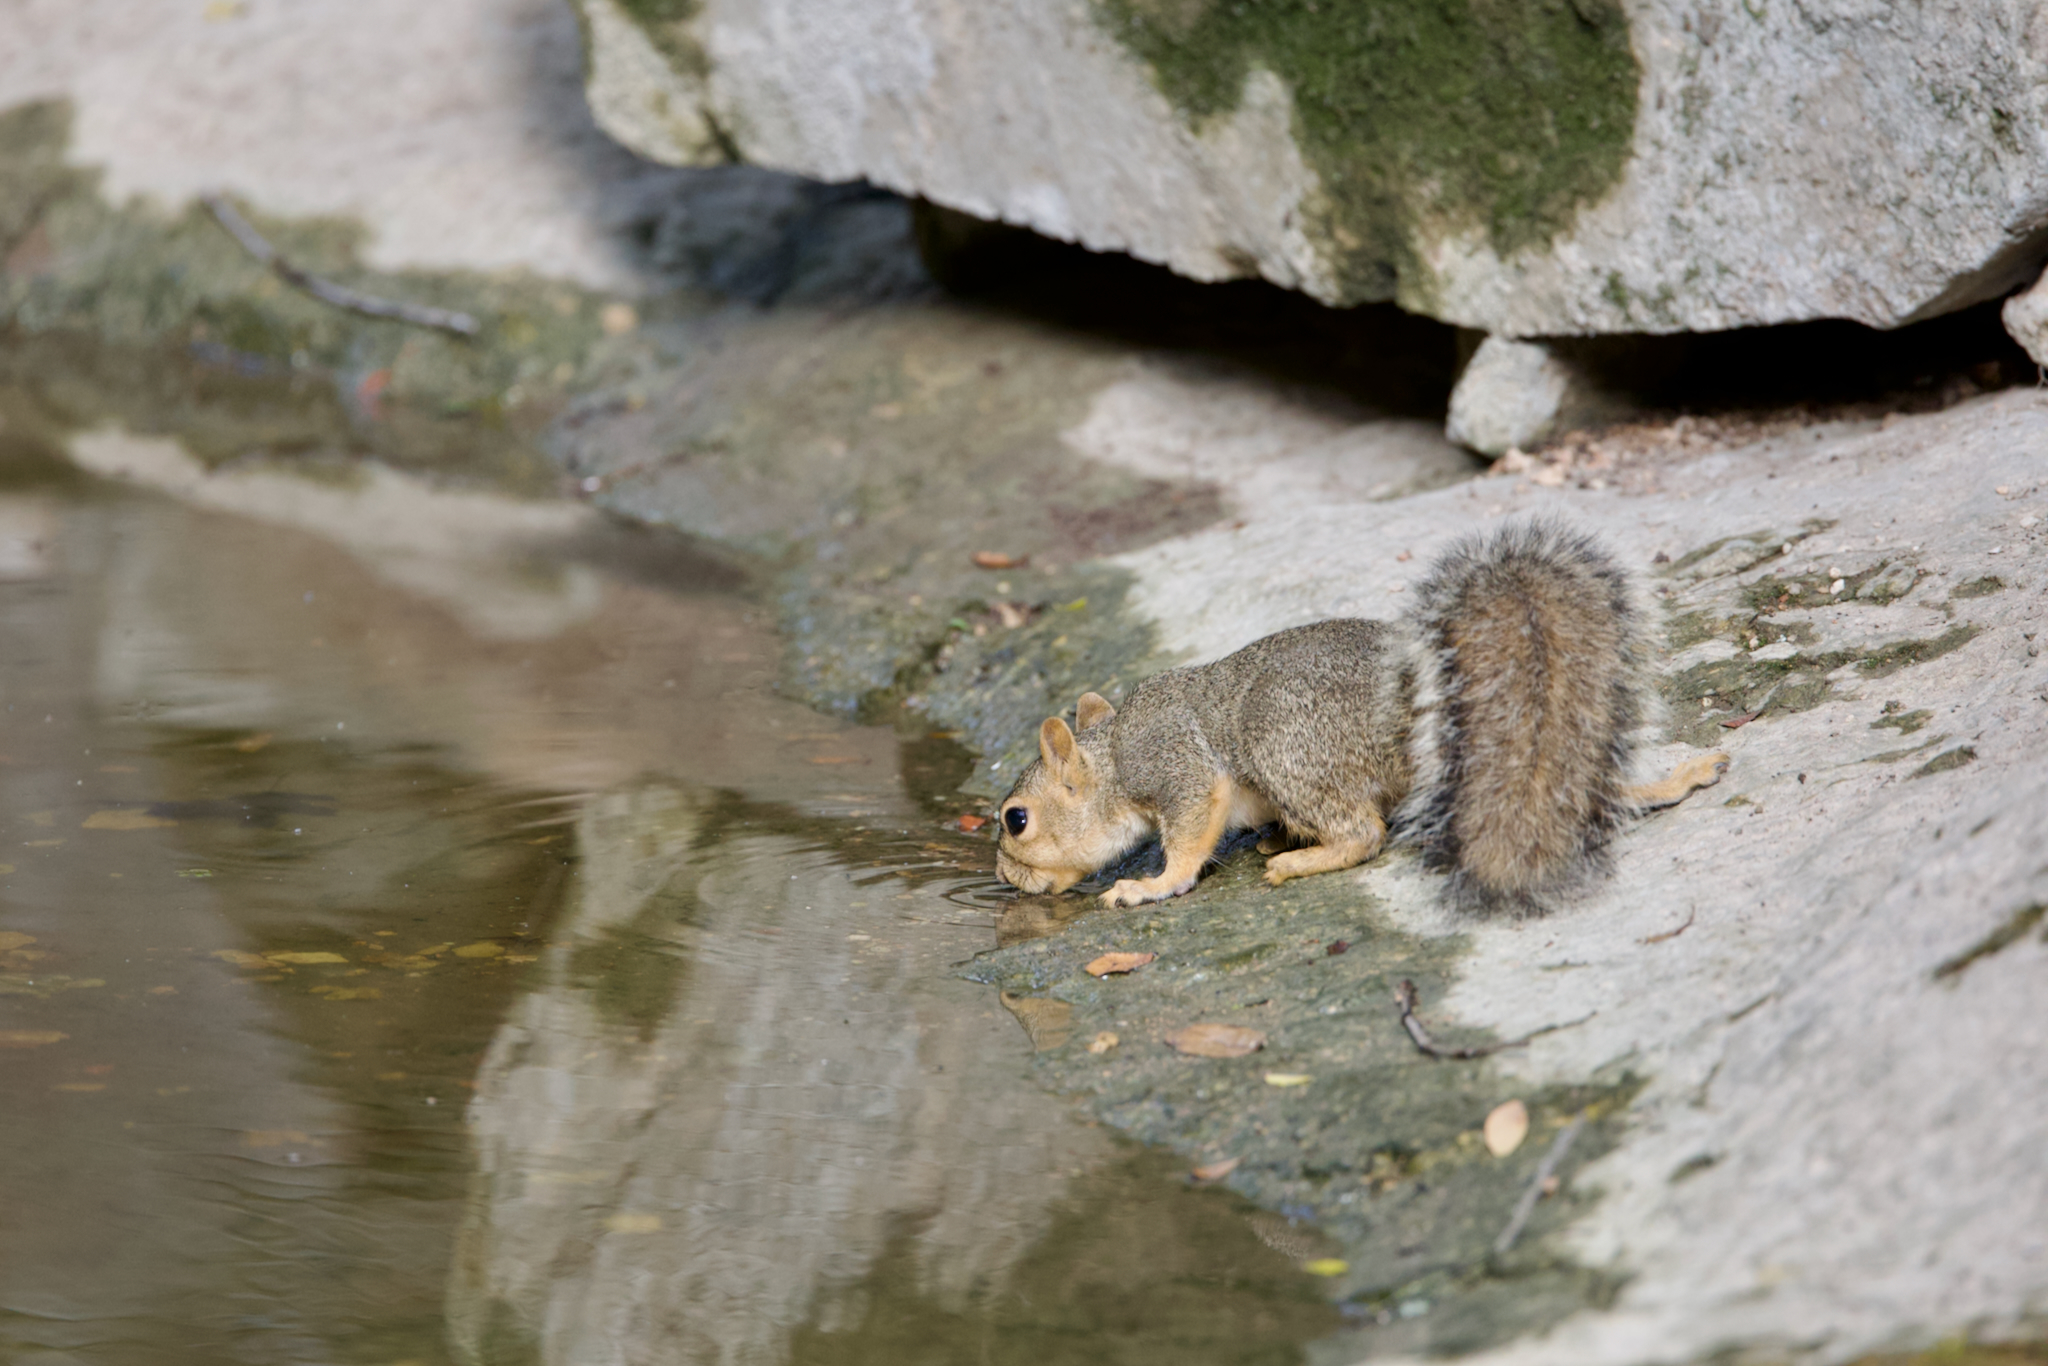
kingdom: Animalia
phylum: Chordata
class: Mammalia
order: Rodentia
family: Sciuridae
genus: Sciurus
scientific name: Sciurus niger
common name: Fox squirrel
